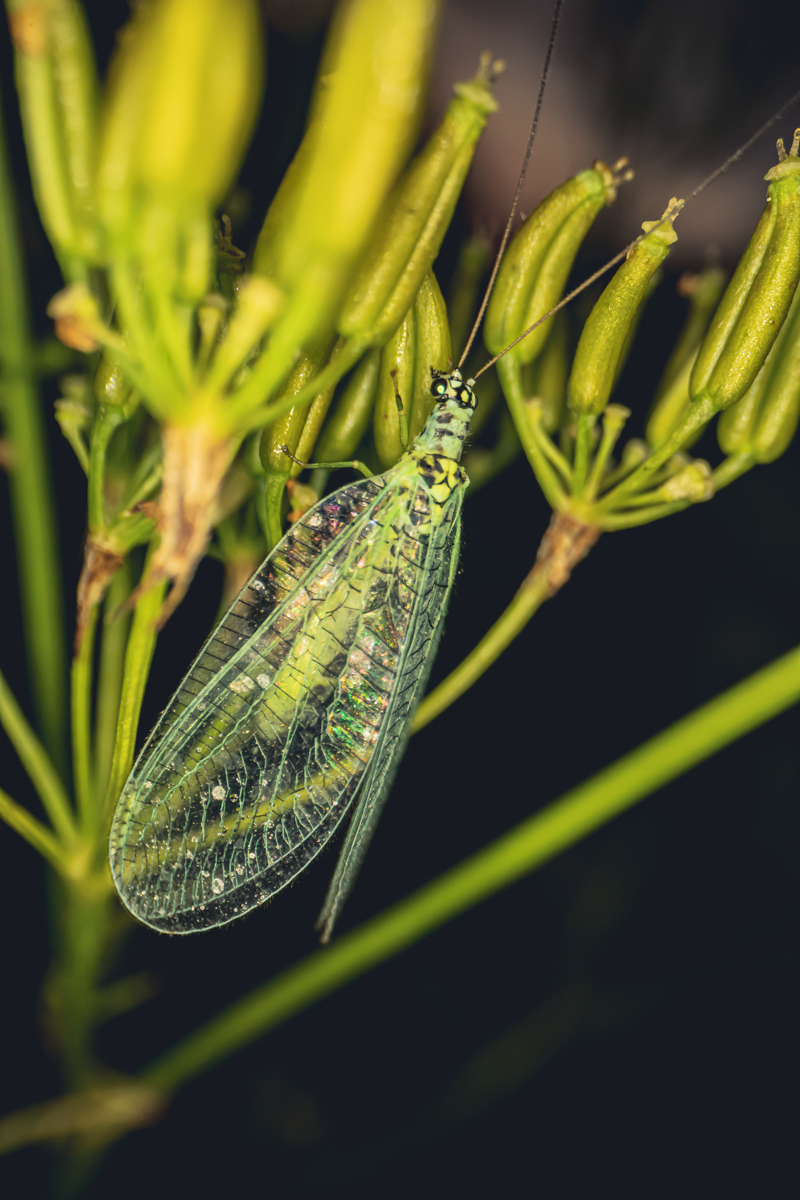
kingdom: Animalia
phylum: Arthropoda
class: Insecta
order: Neuroptera
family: Chrysopidae
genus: Chrysopa
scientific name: Chrysopa perla
